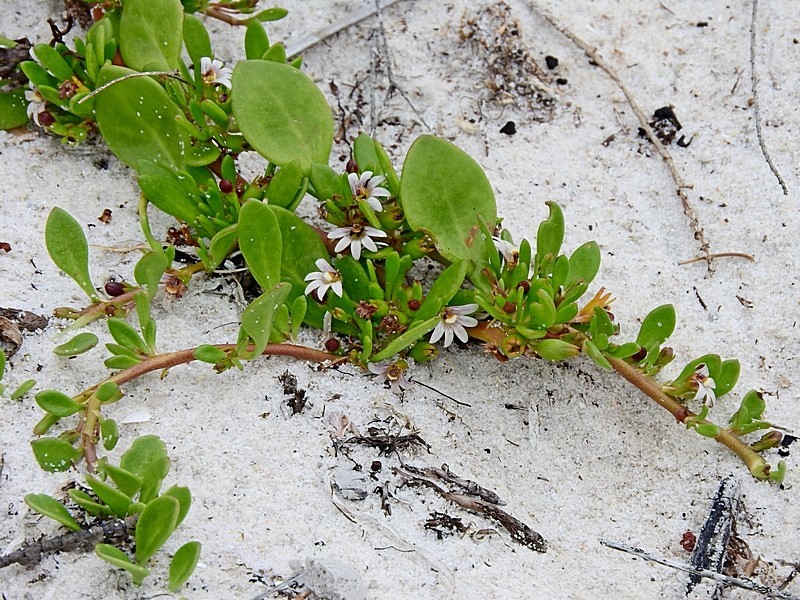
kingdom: Plantae
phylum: Tracheophyta
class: Magnoliopsida
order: Asterales
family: Goodeniaceae
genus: Goodenia
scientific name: Goodenia radicans
